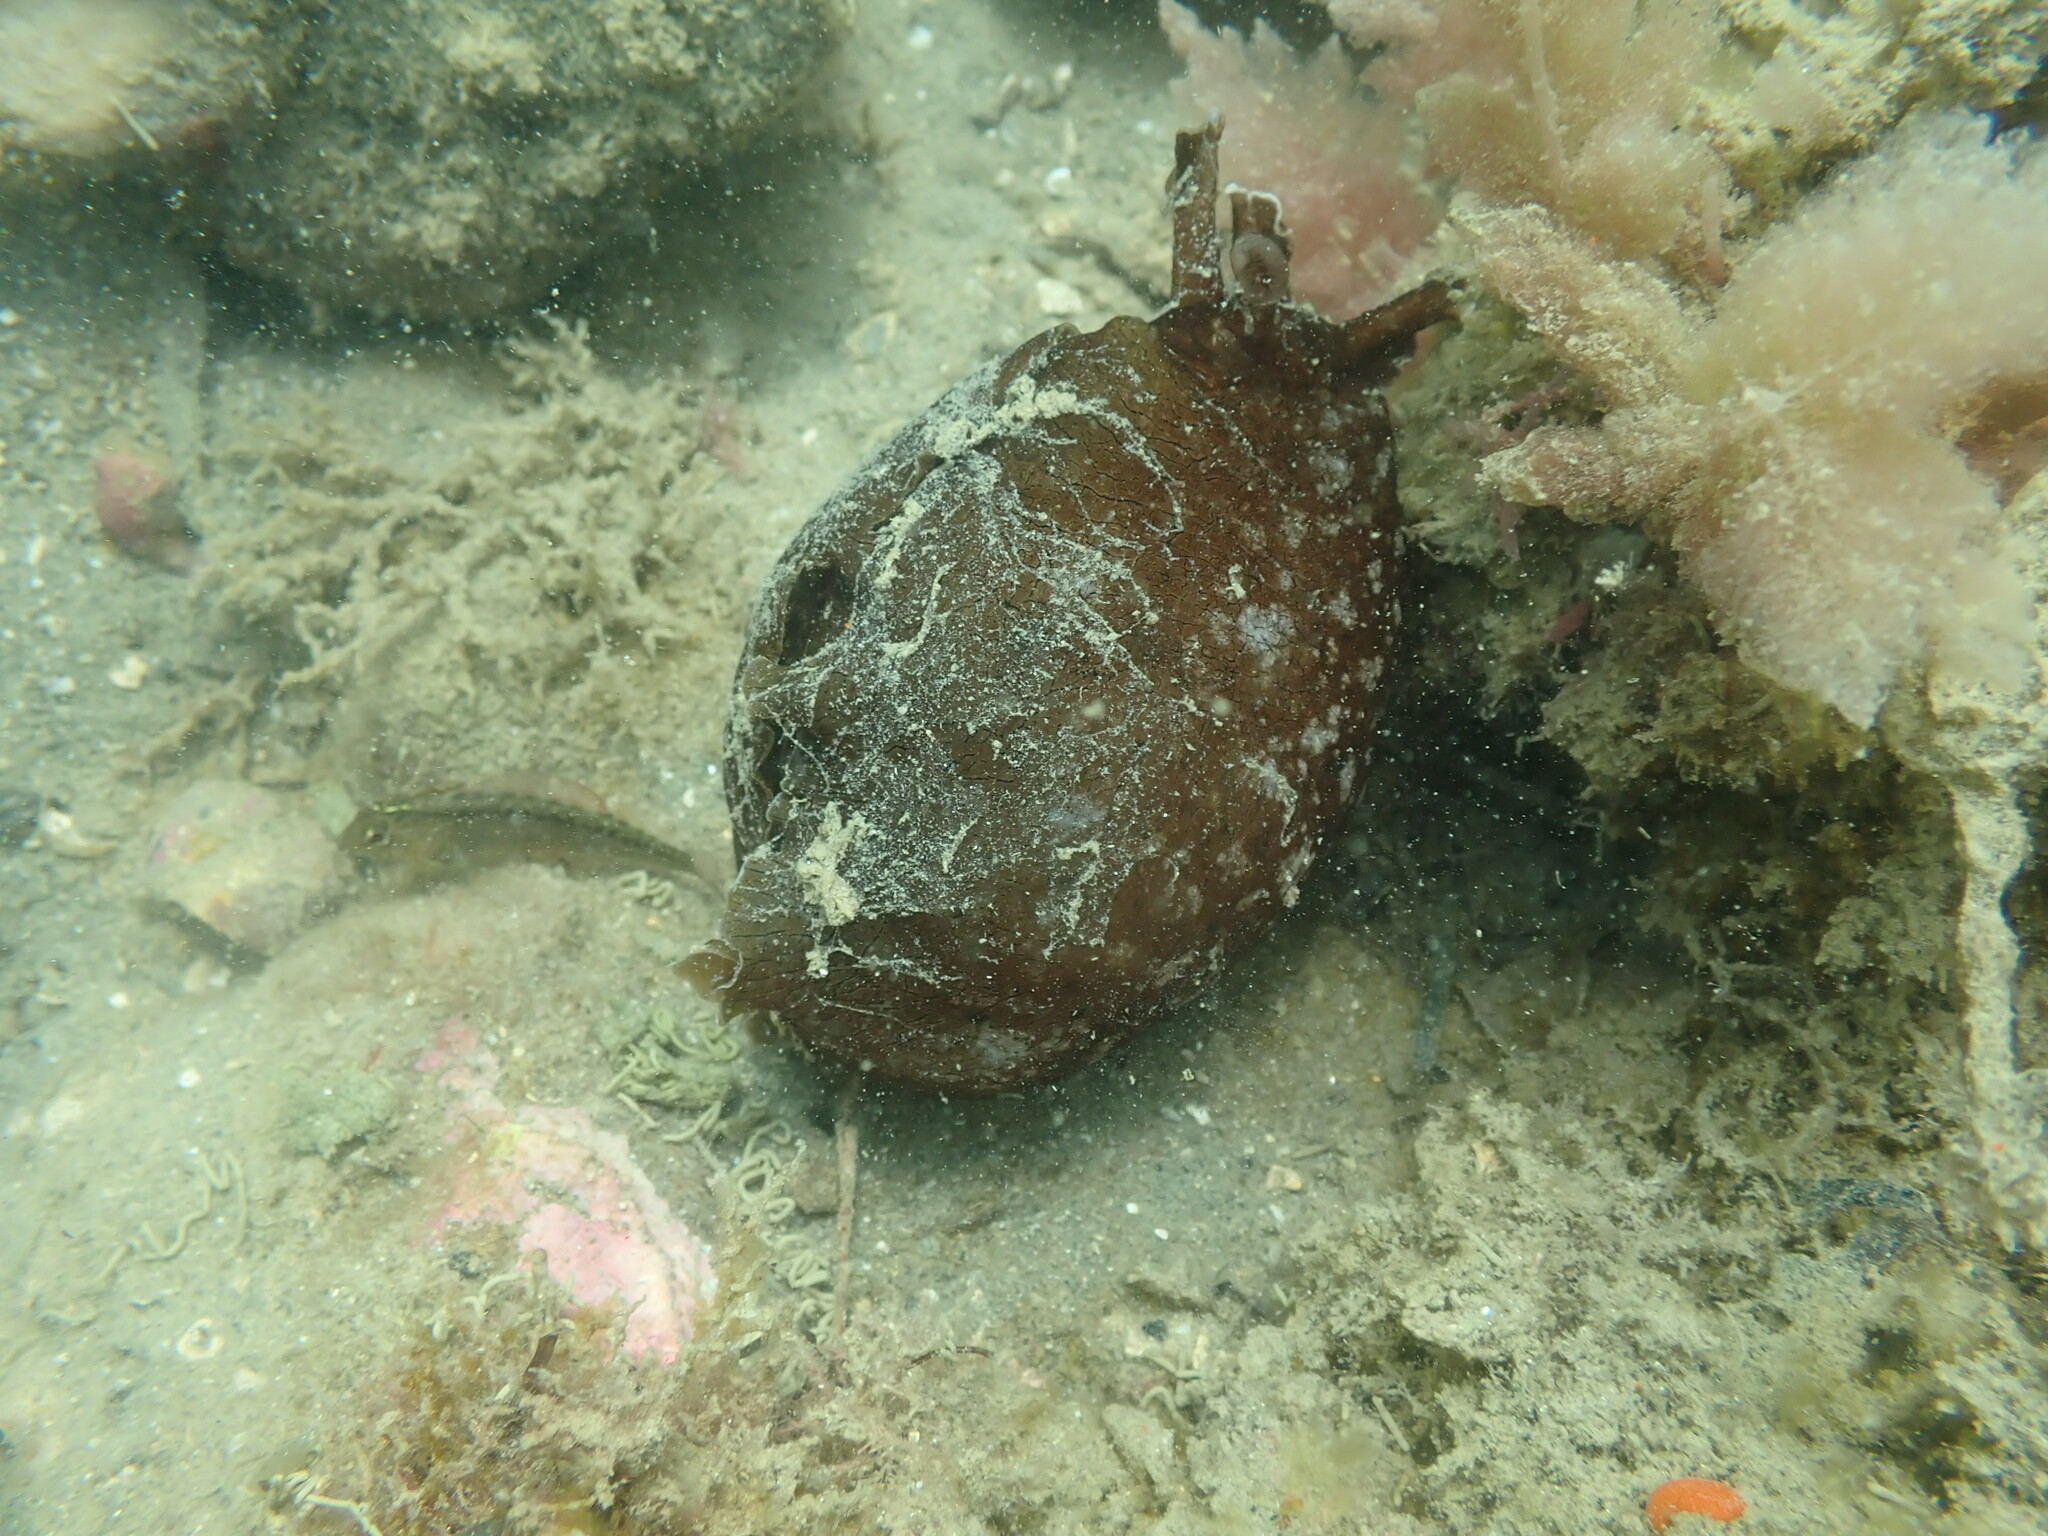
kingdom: Animalia
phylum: Mollusca
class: Gastropoda
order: Aplysiida
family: Aplysiidae
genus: Aplysia
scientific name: Aplysia juliana
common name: Walking sea hare
